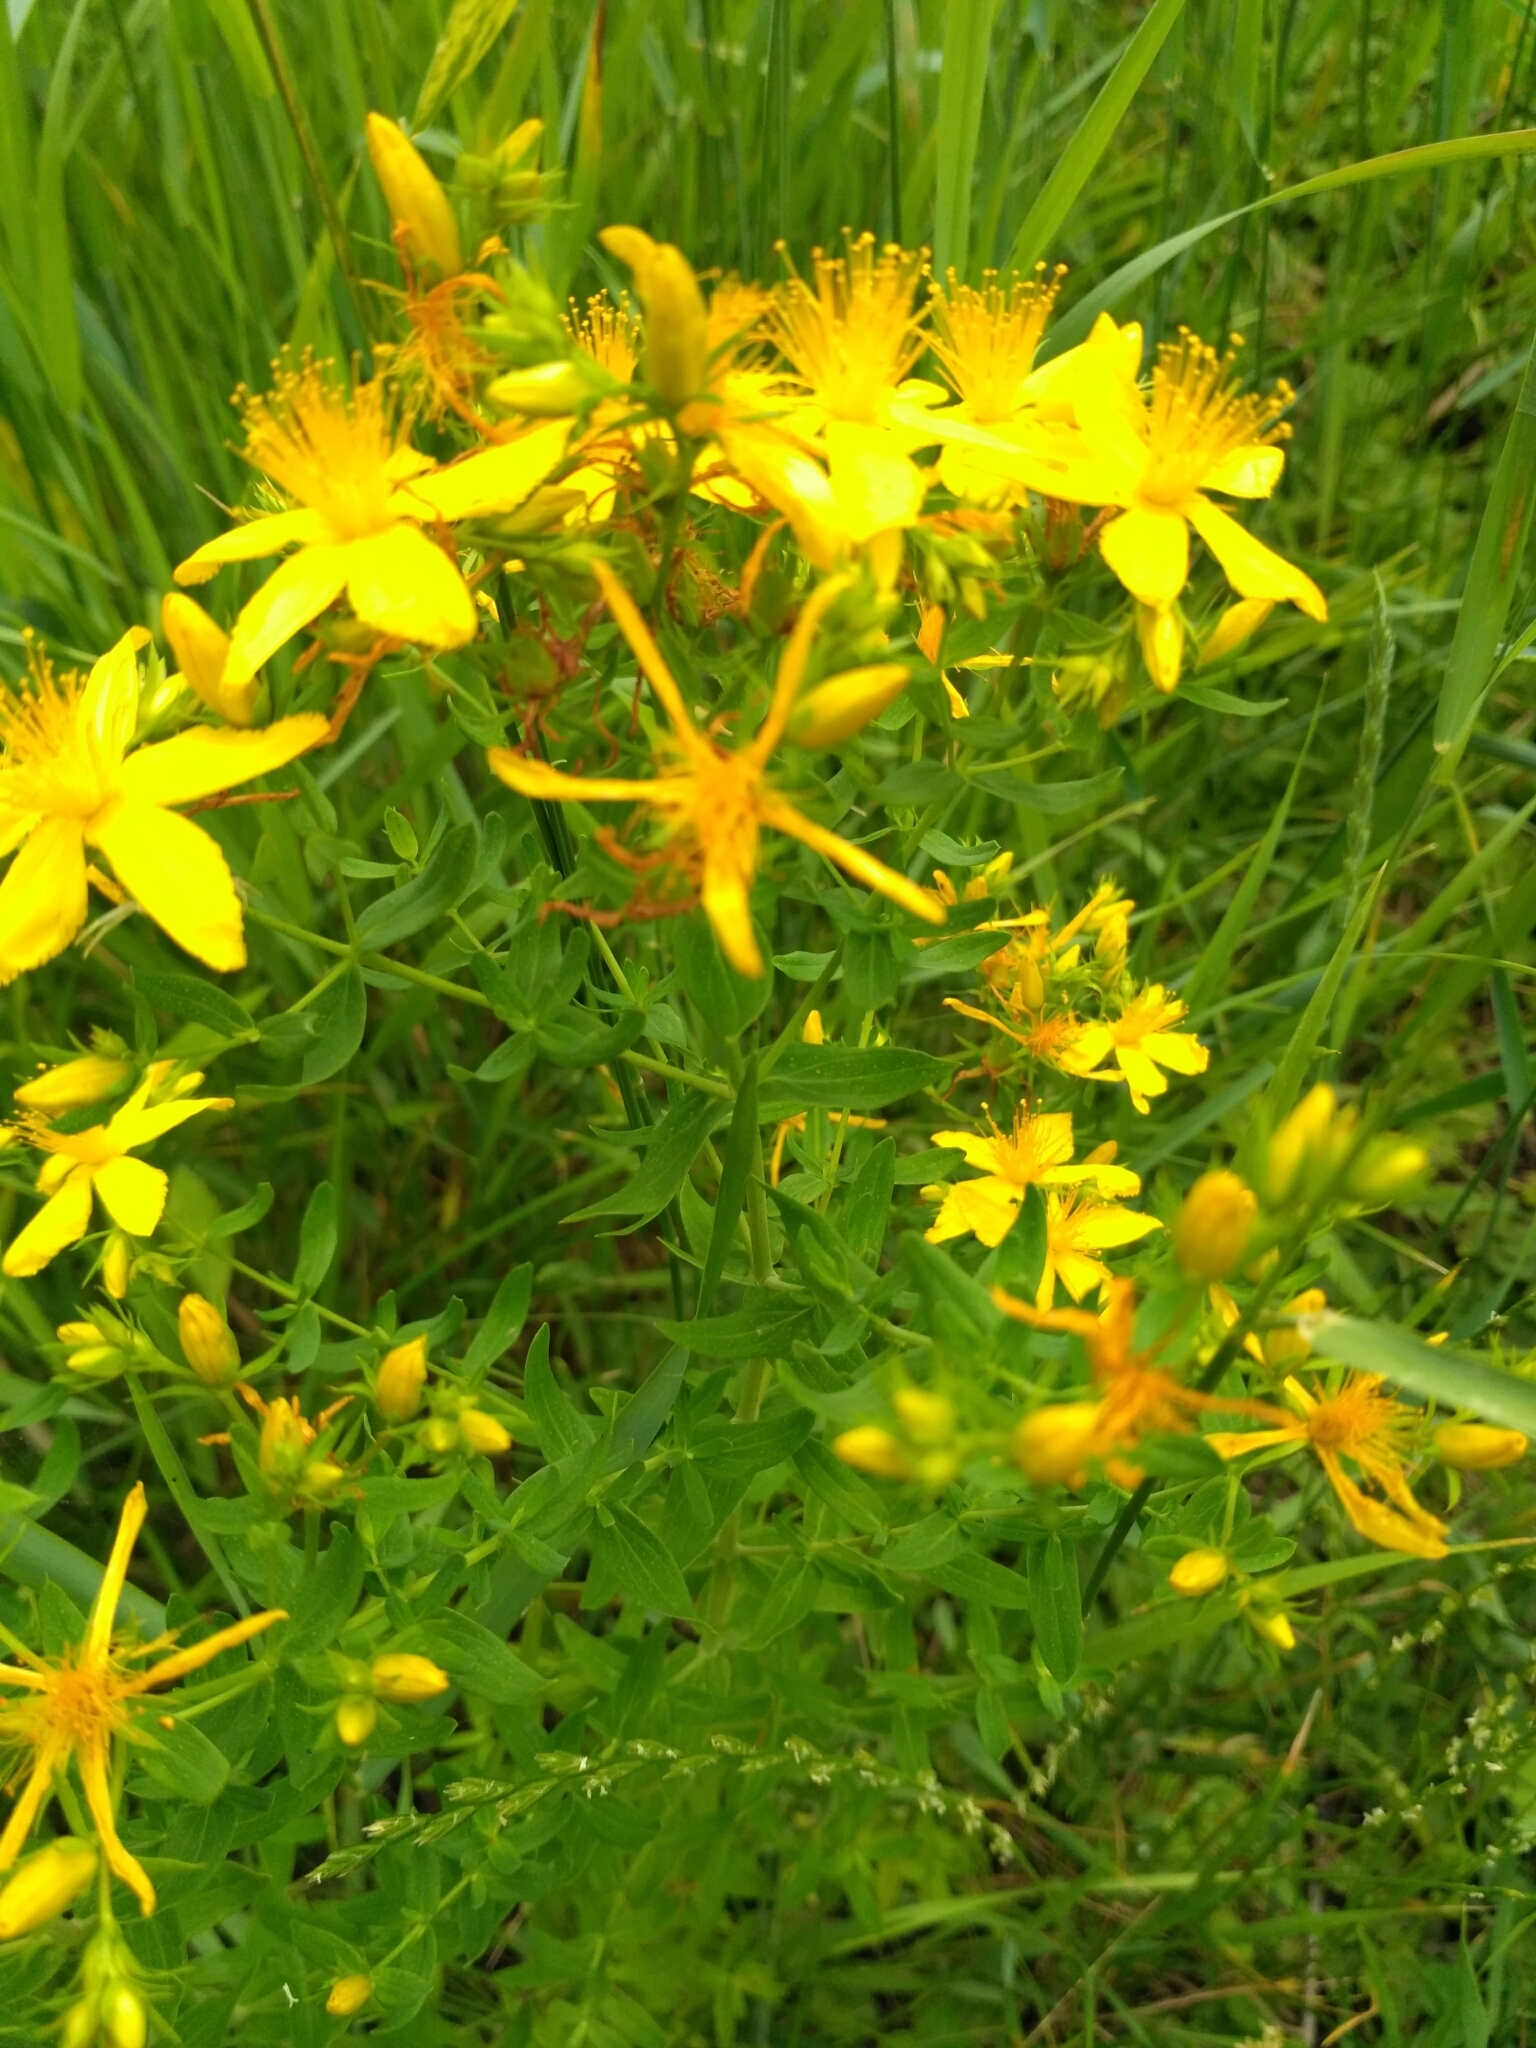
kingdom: Plantae
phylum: Tracheophyta
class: Magnoliopsida
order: Malpighiales
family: Hypericaceae
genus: Hypericum
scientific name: Hypericum perforatum
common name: Common st. johnswort
